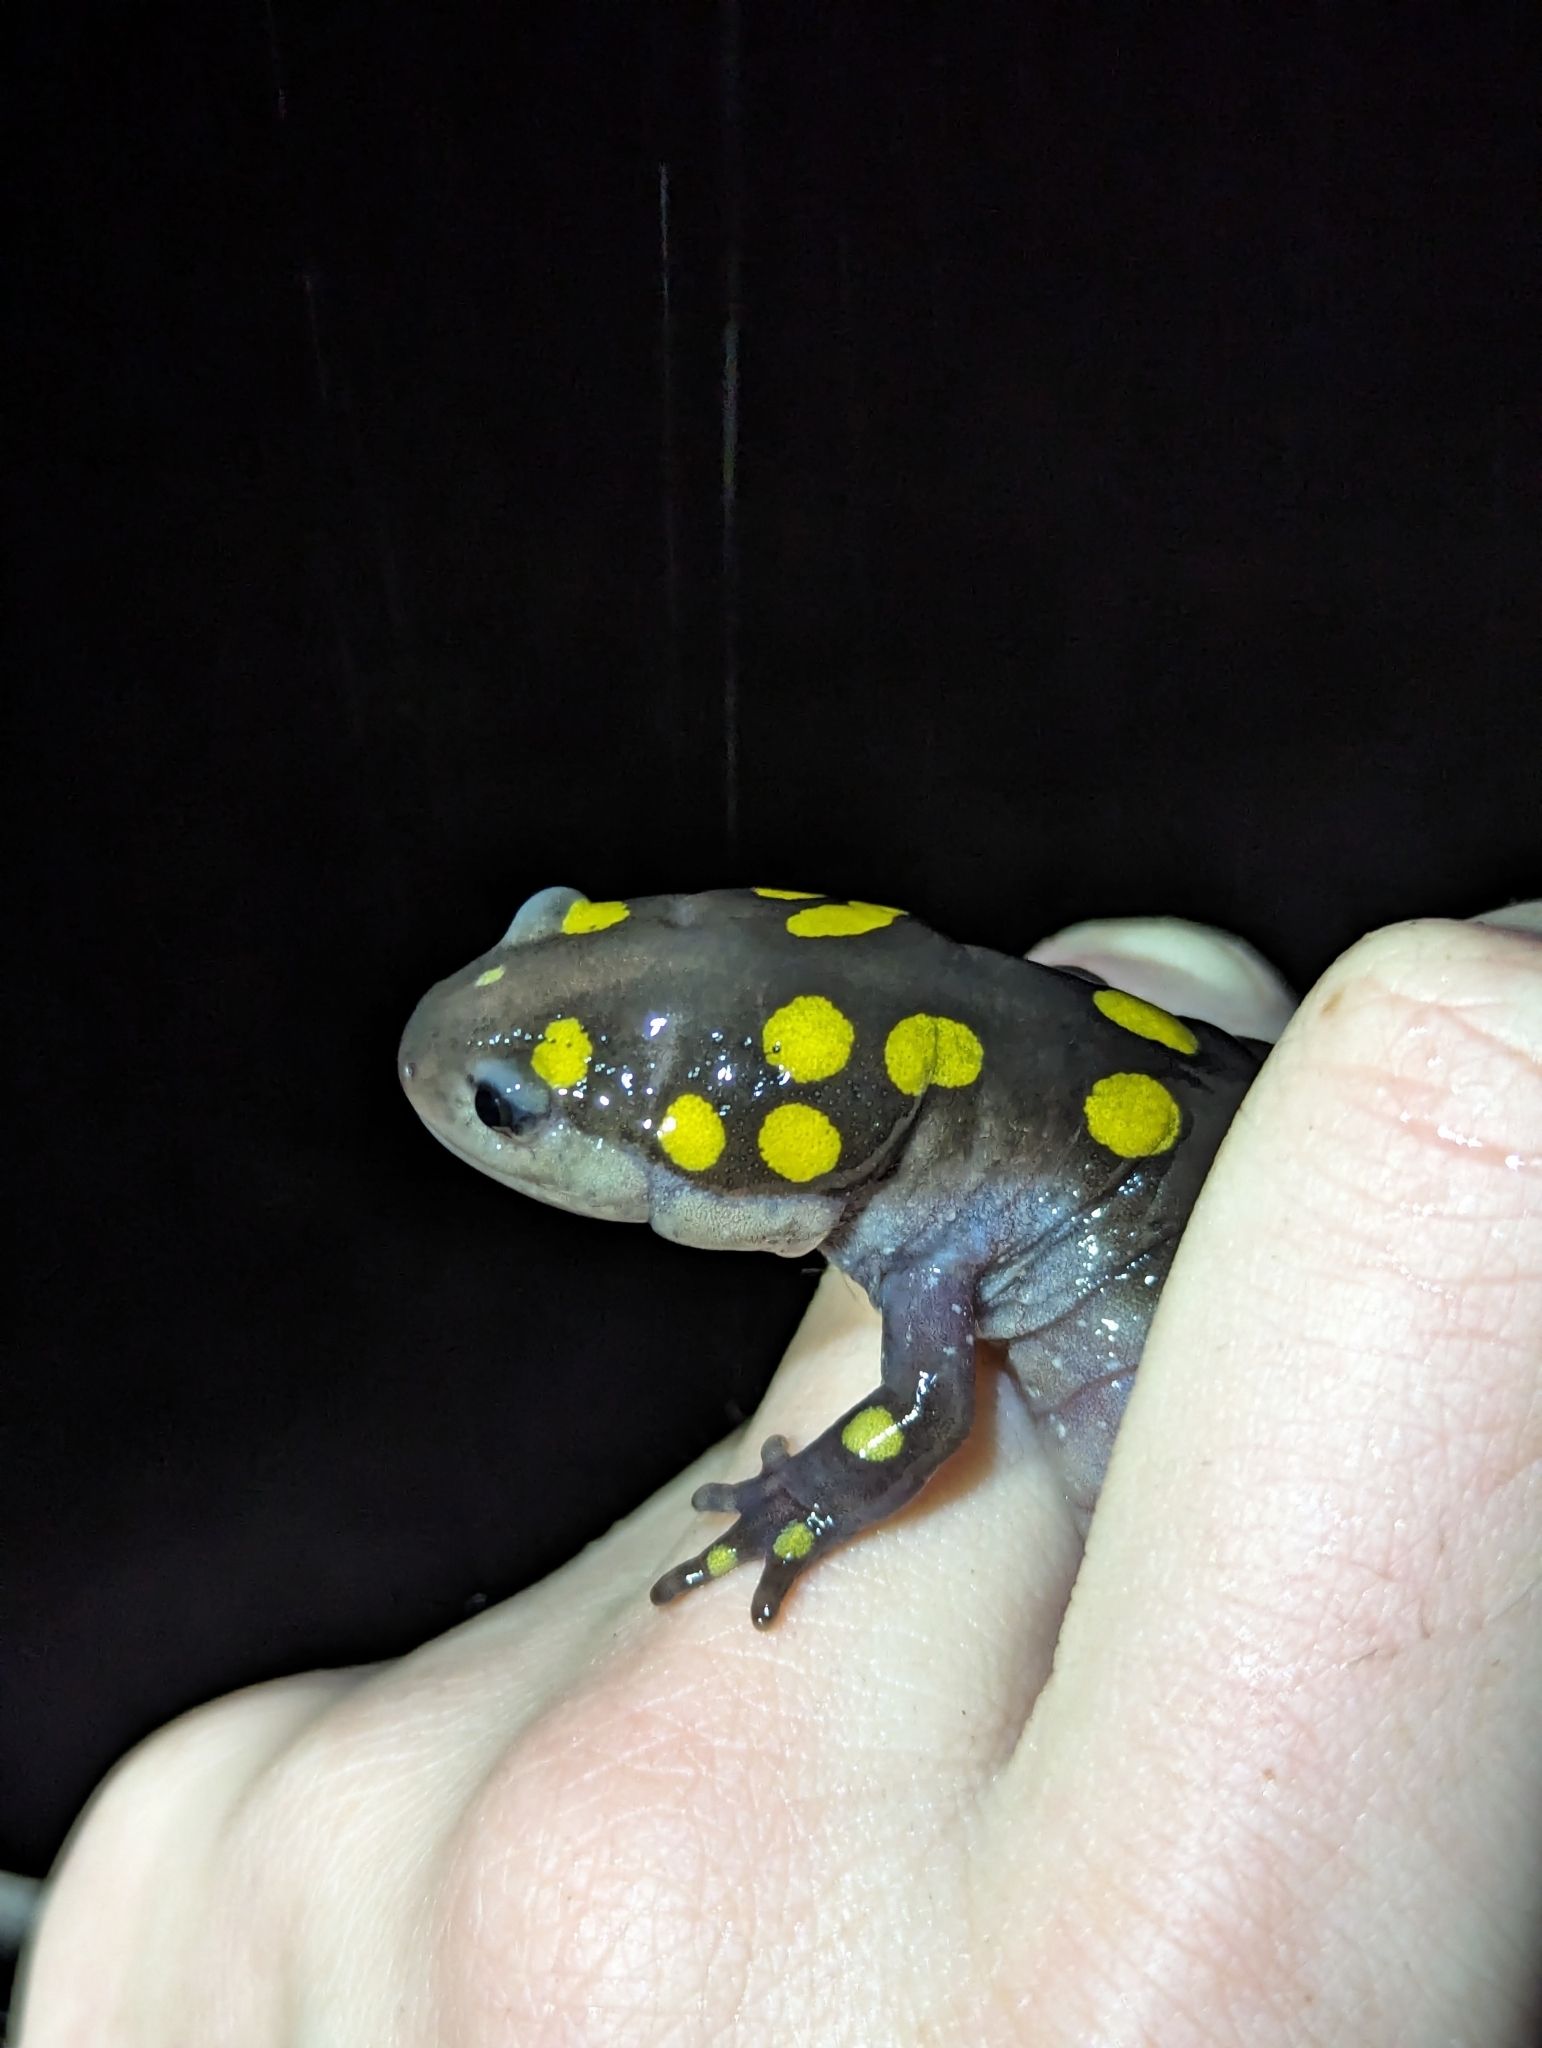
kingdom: Animalia
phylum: Chordata
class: Amphibia
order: Caudata
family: Ambystomatidae
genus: Ambystoma
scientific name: Ambystoma maculatum
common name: Spotted salamander
